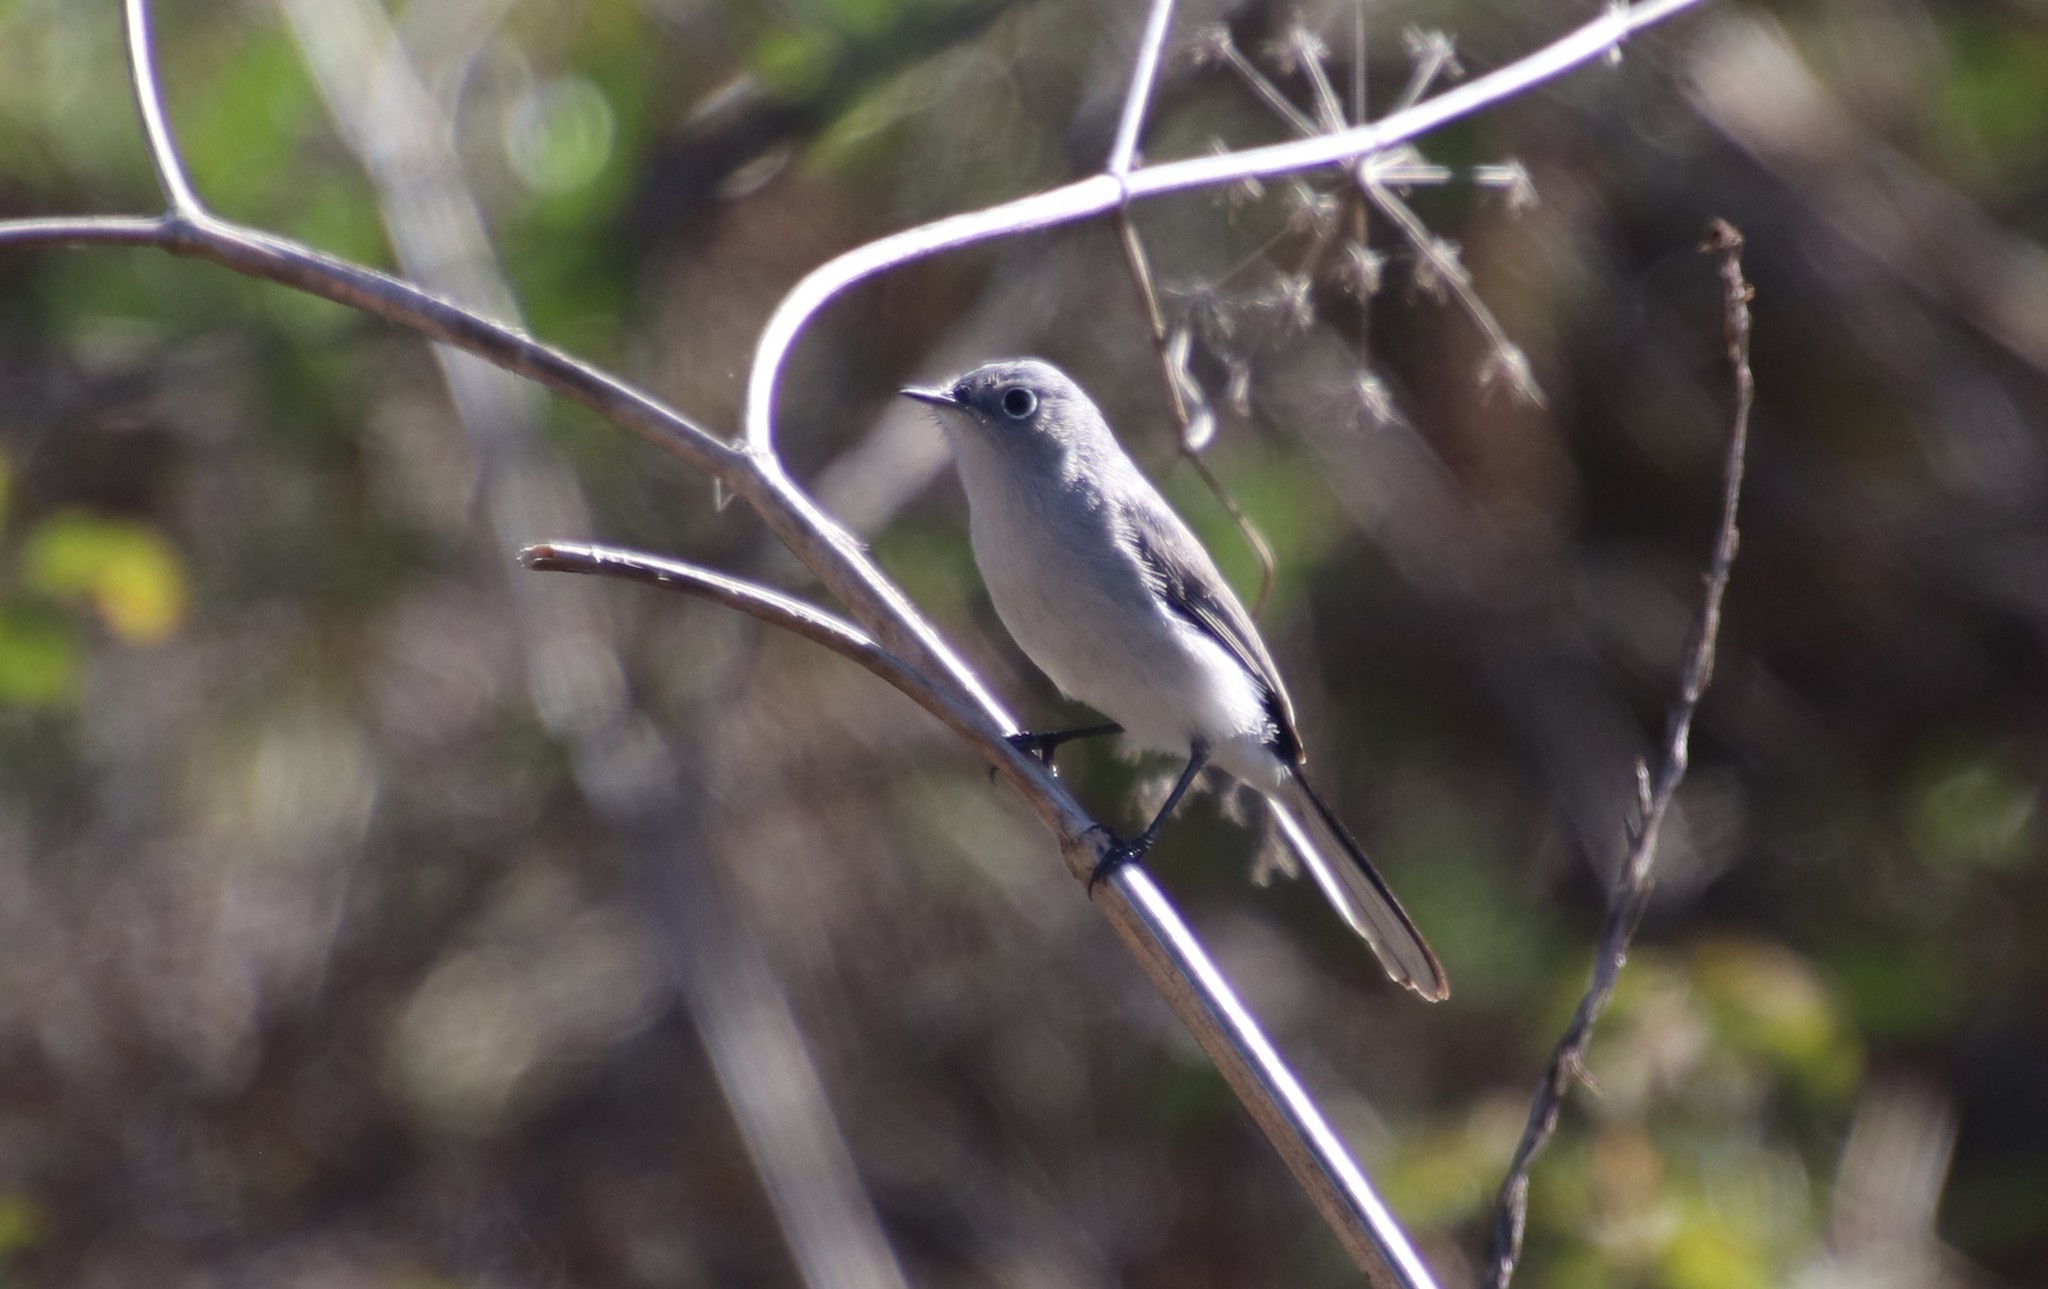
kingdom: Animalia
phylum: Chordata
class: Aves
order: Passeriformes
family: Polioptilidae
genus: Polioptila
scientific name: Polioptila caerulea
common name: Blue-gray gnatcatcher
